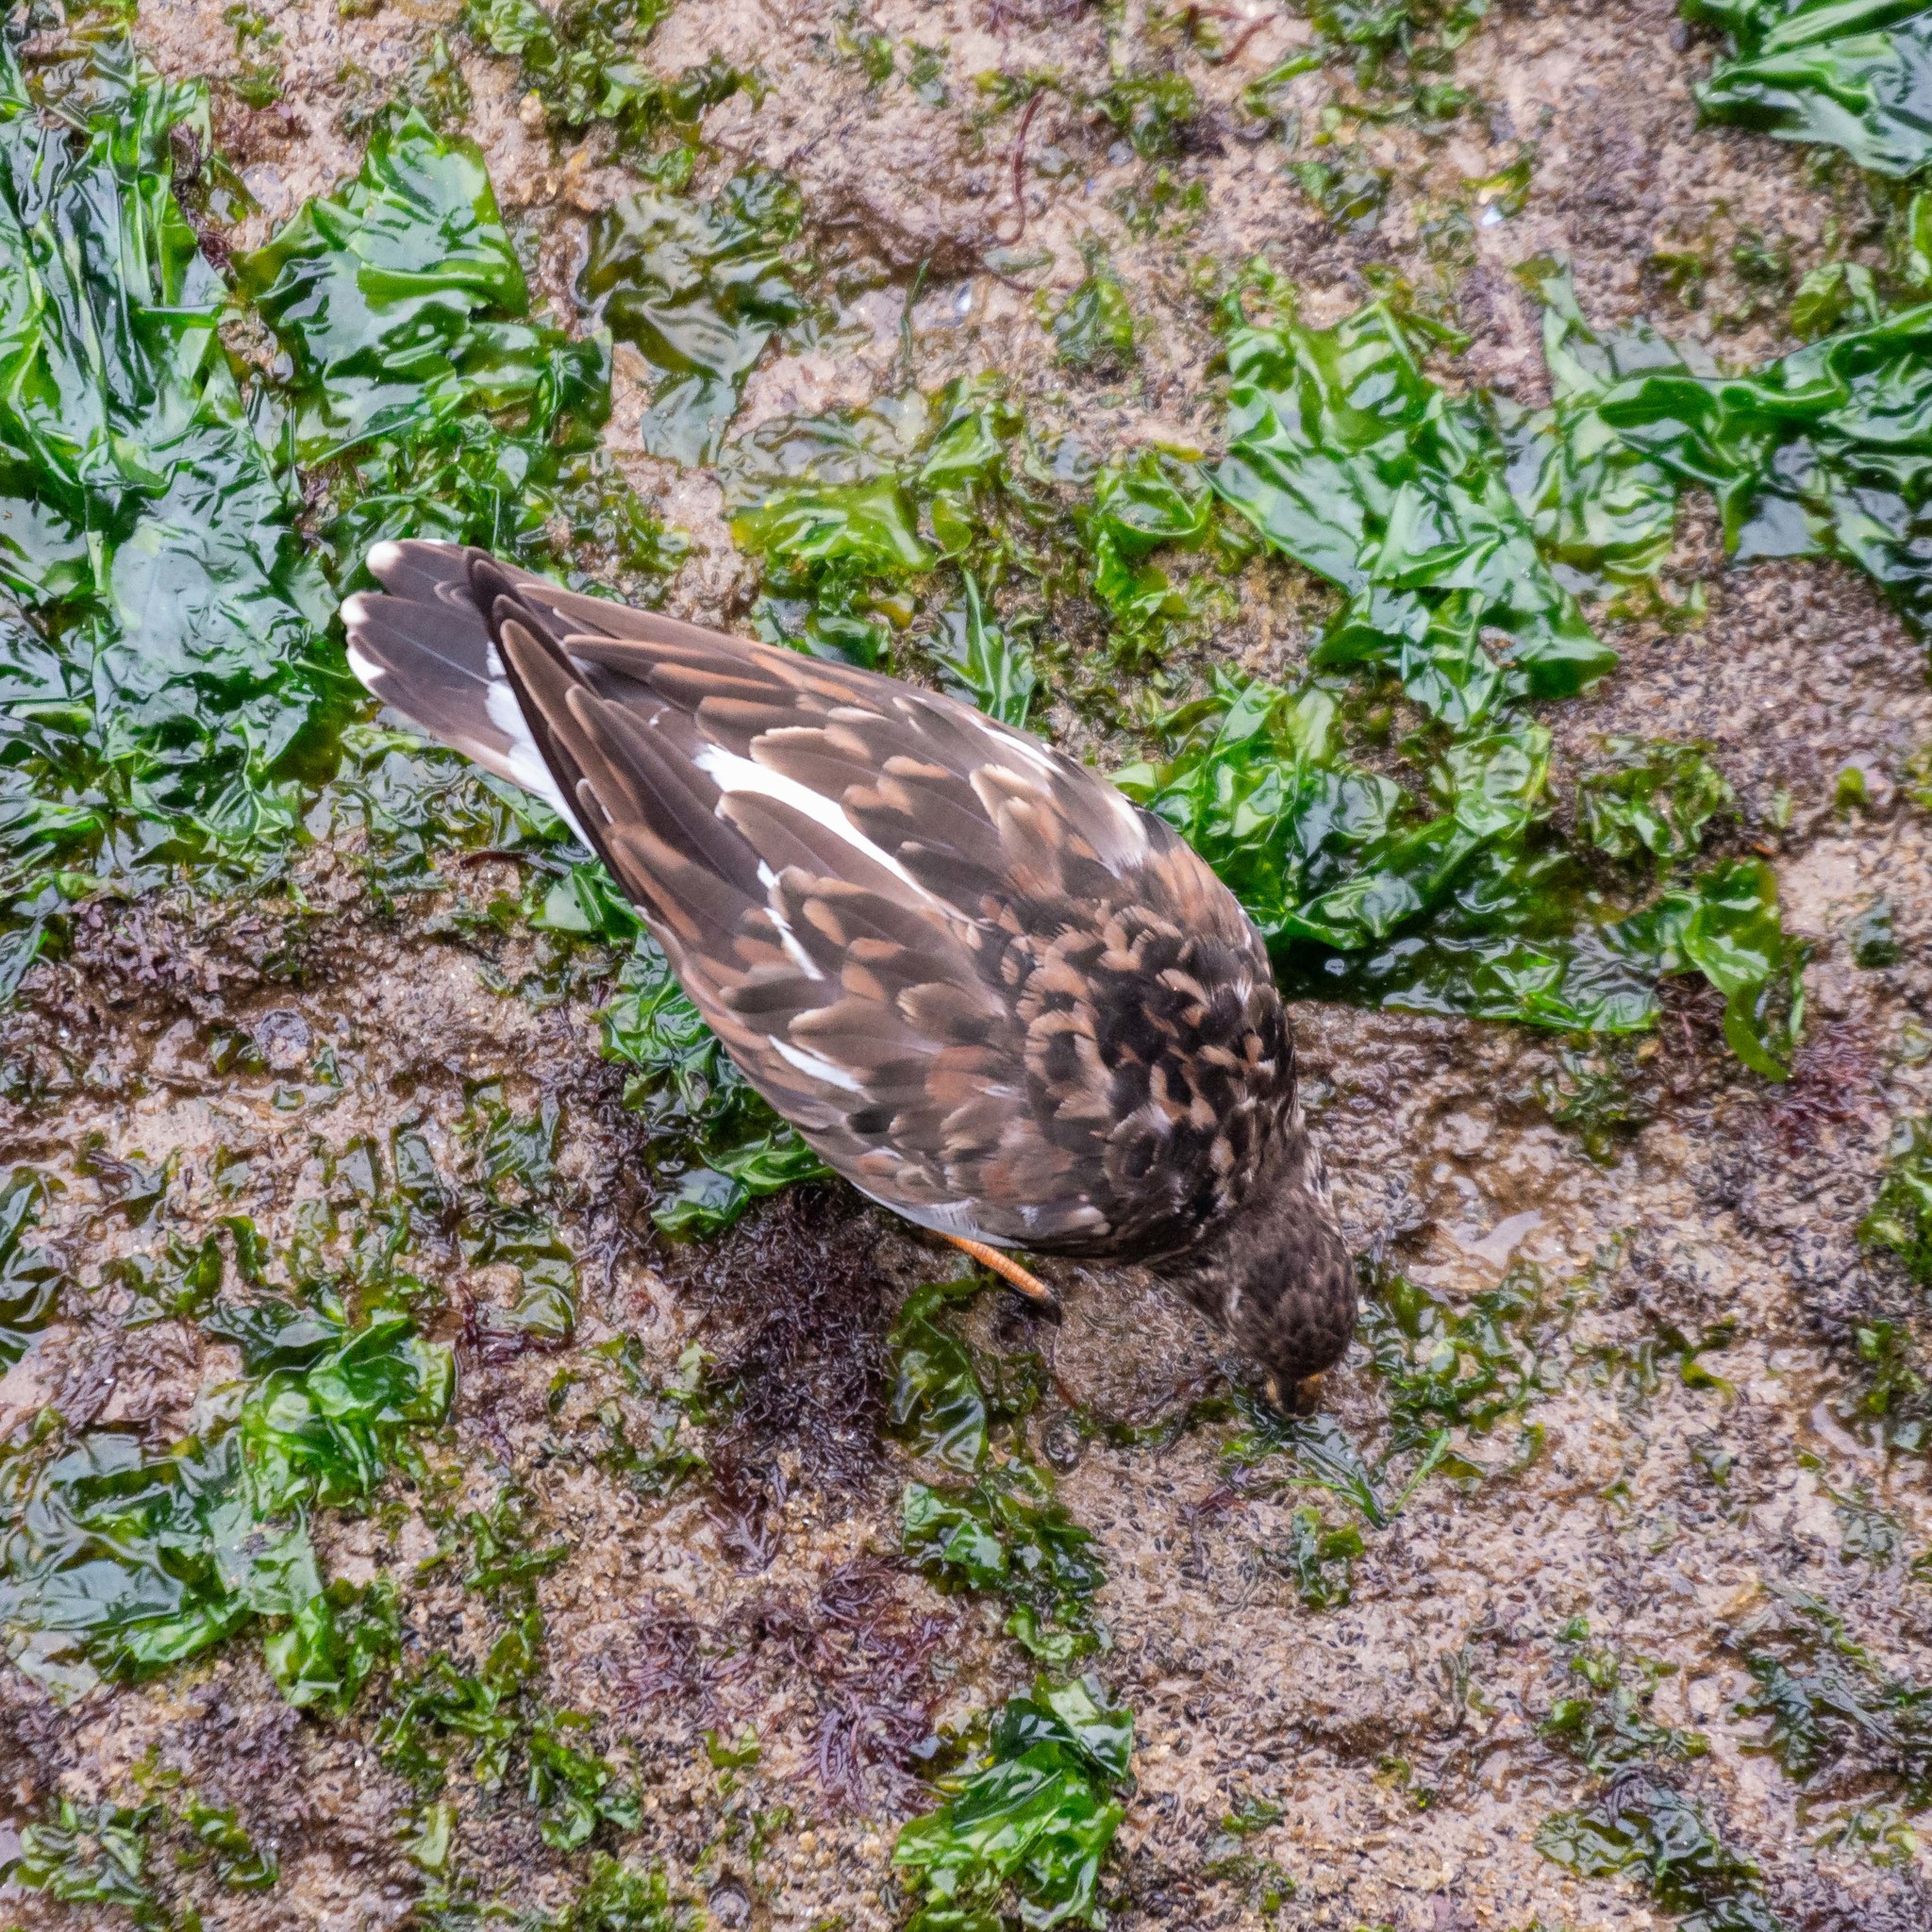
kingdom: Animalia
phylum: Chordata
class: Aves
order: Charadriiformes
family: Scolopacidae
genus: Arenaria
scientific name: Arenaria interpres
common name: Ruddy turnstone
